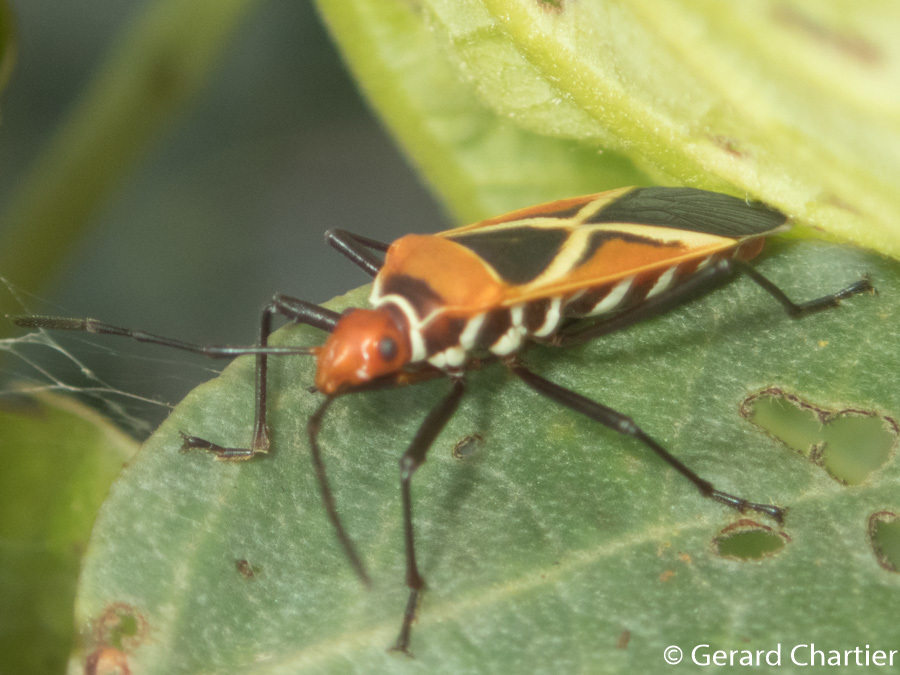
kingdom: Animalia
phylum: Arthropoda
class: Insecta
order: Hemiptera
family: Pyrrhocoridae
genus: Dysdercus
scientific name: Dysdercus decussatus
